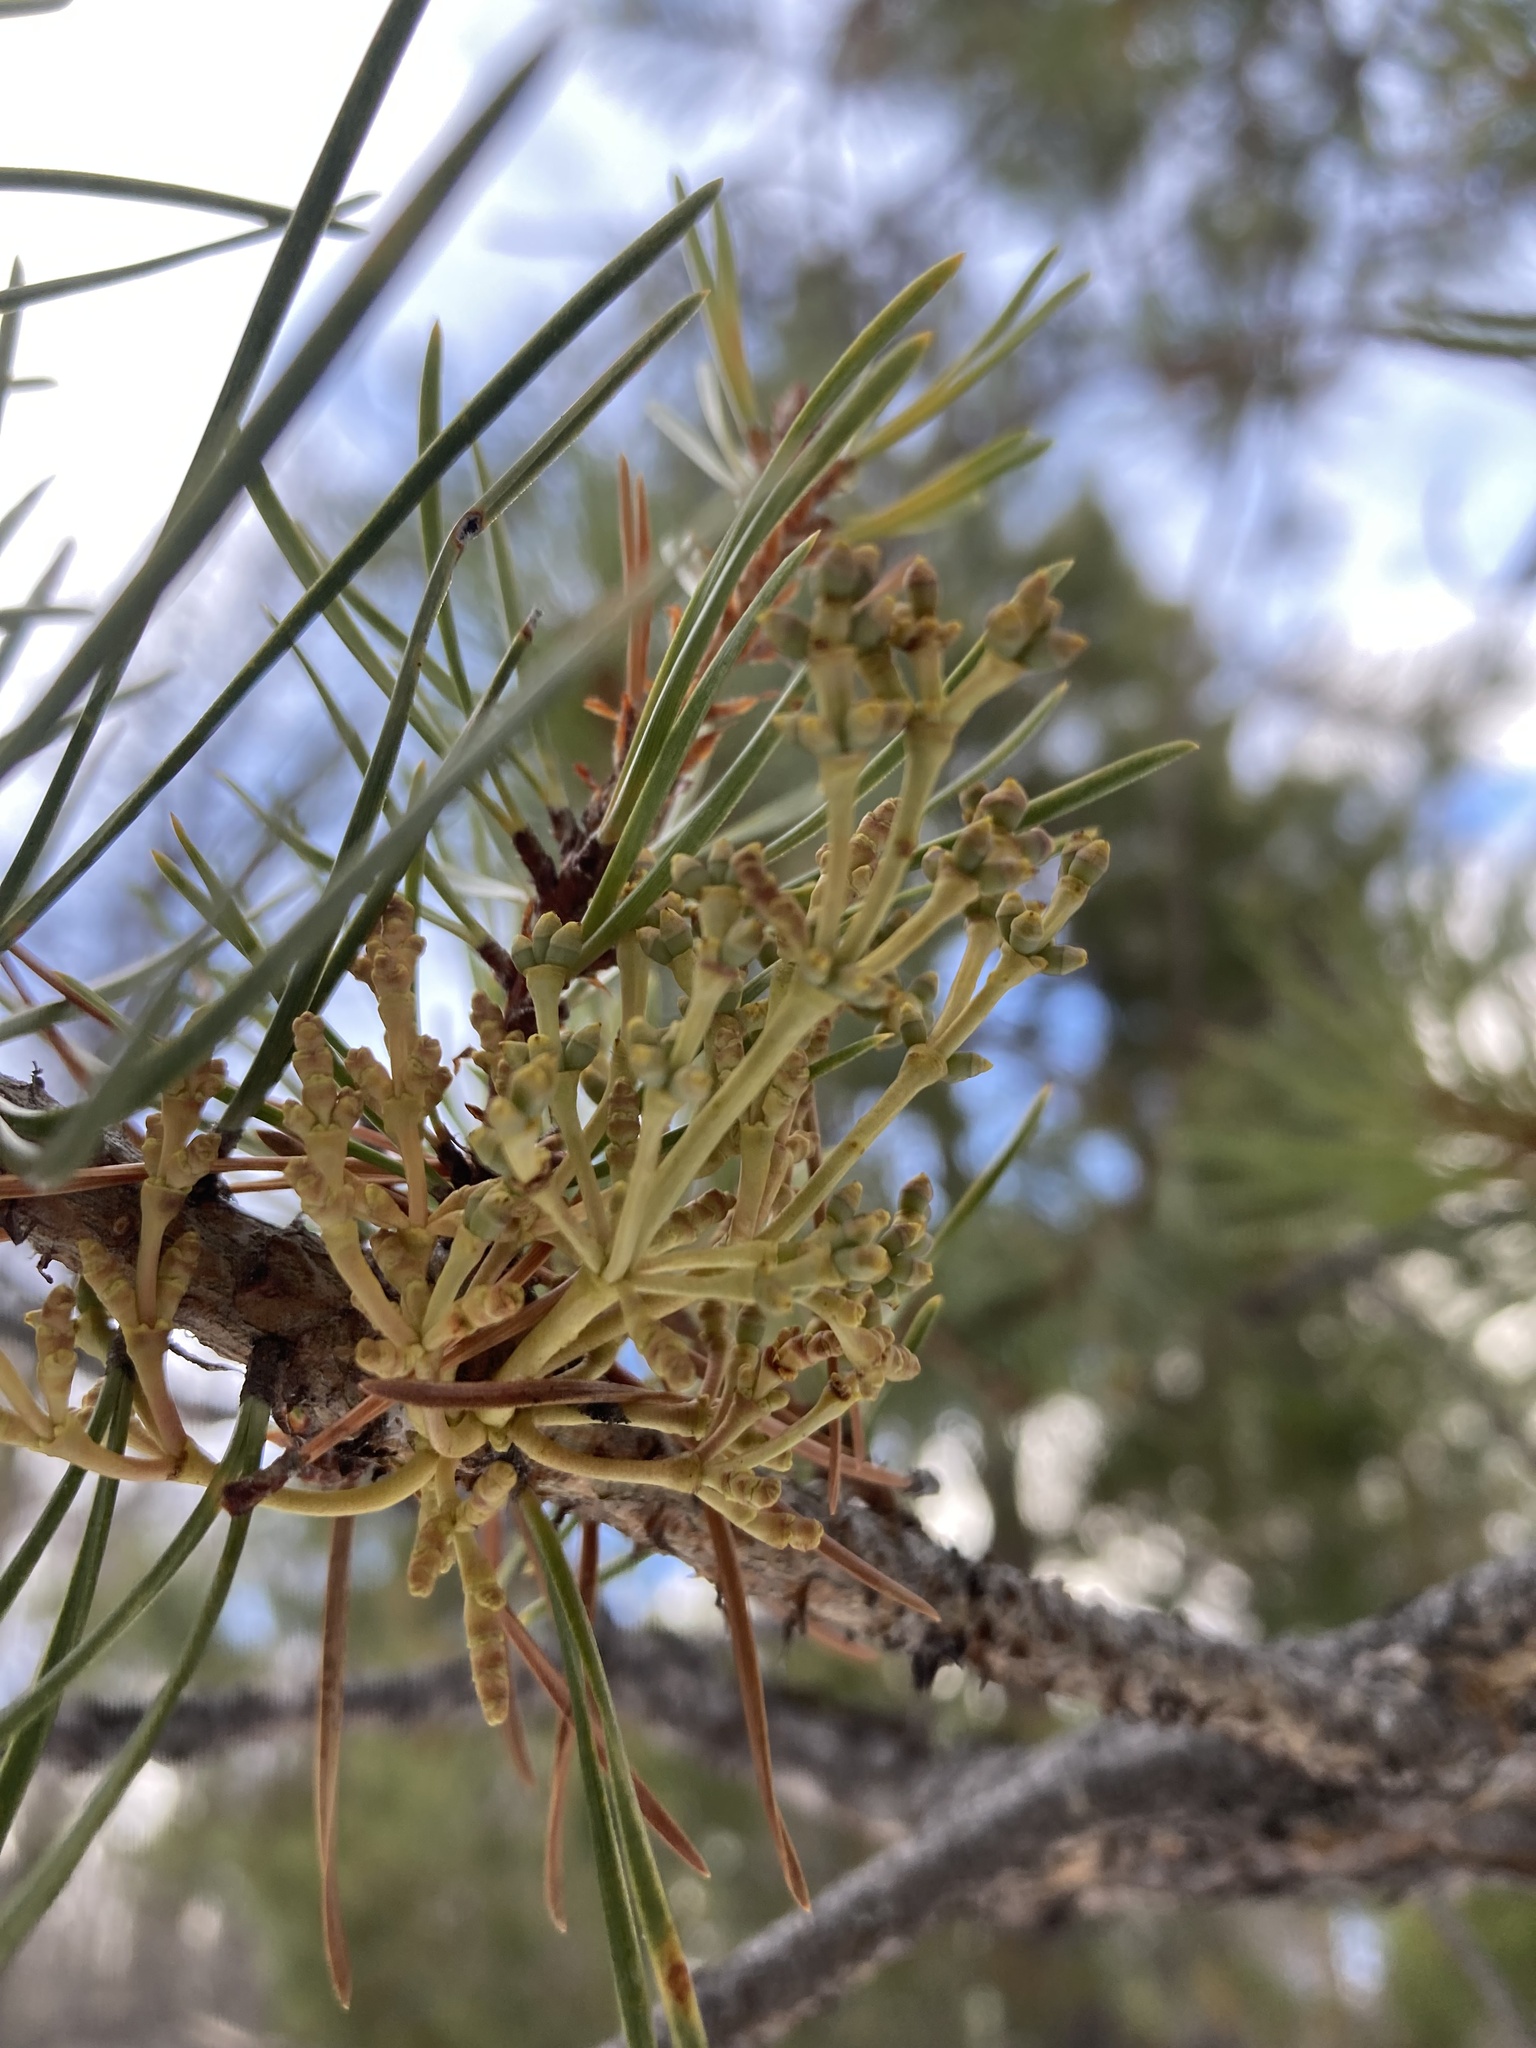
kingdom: Plantae
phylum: Tracheophyta
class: Magnoliopsida
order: Santalales
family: Viscaceae
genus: Arceuthobium
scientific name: Arceuthobium americanum
